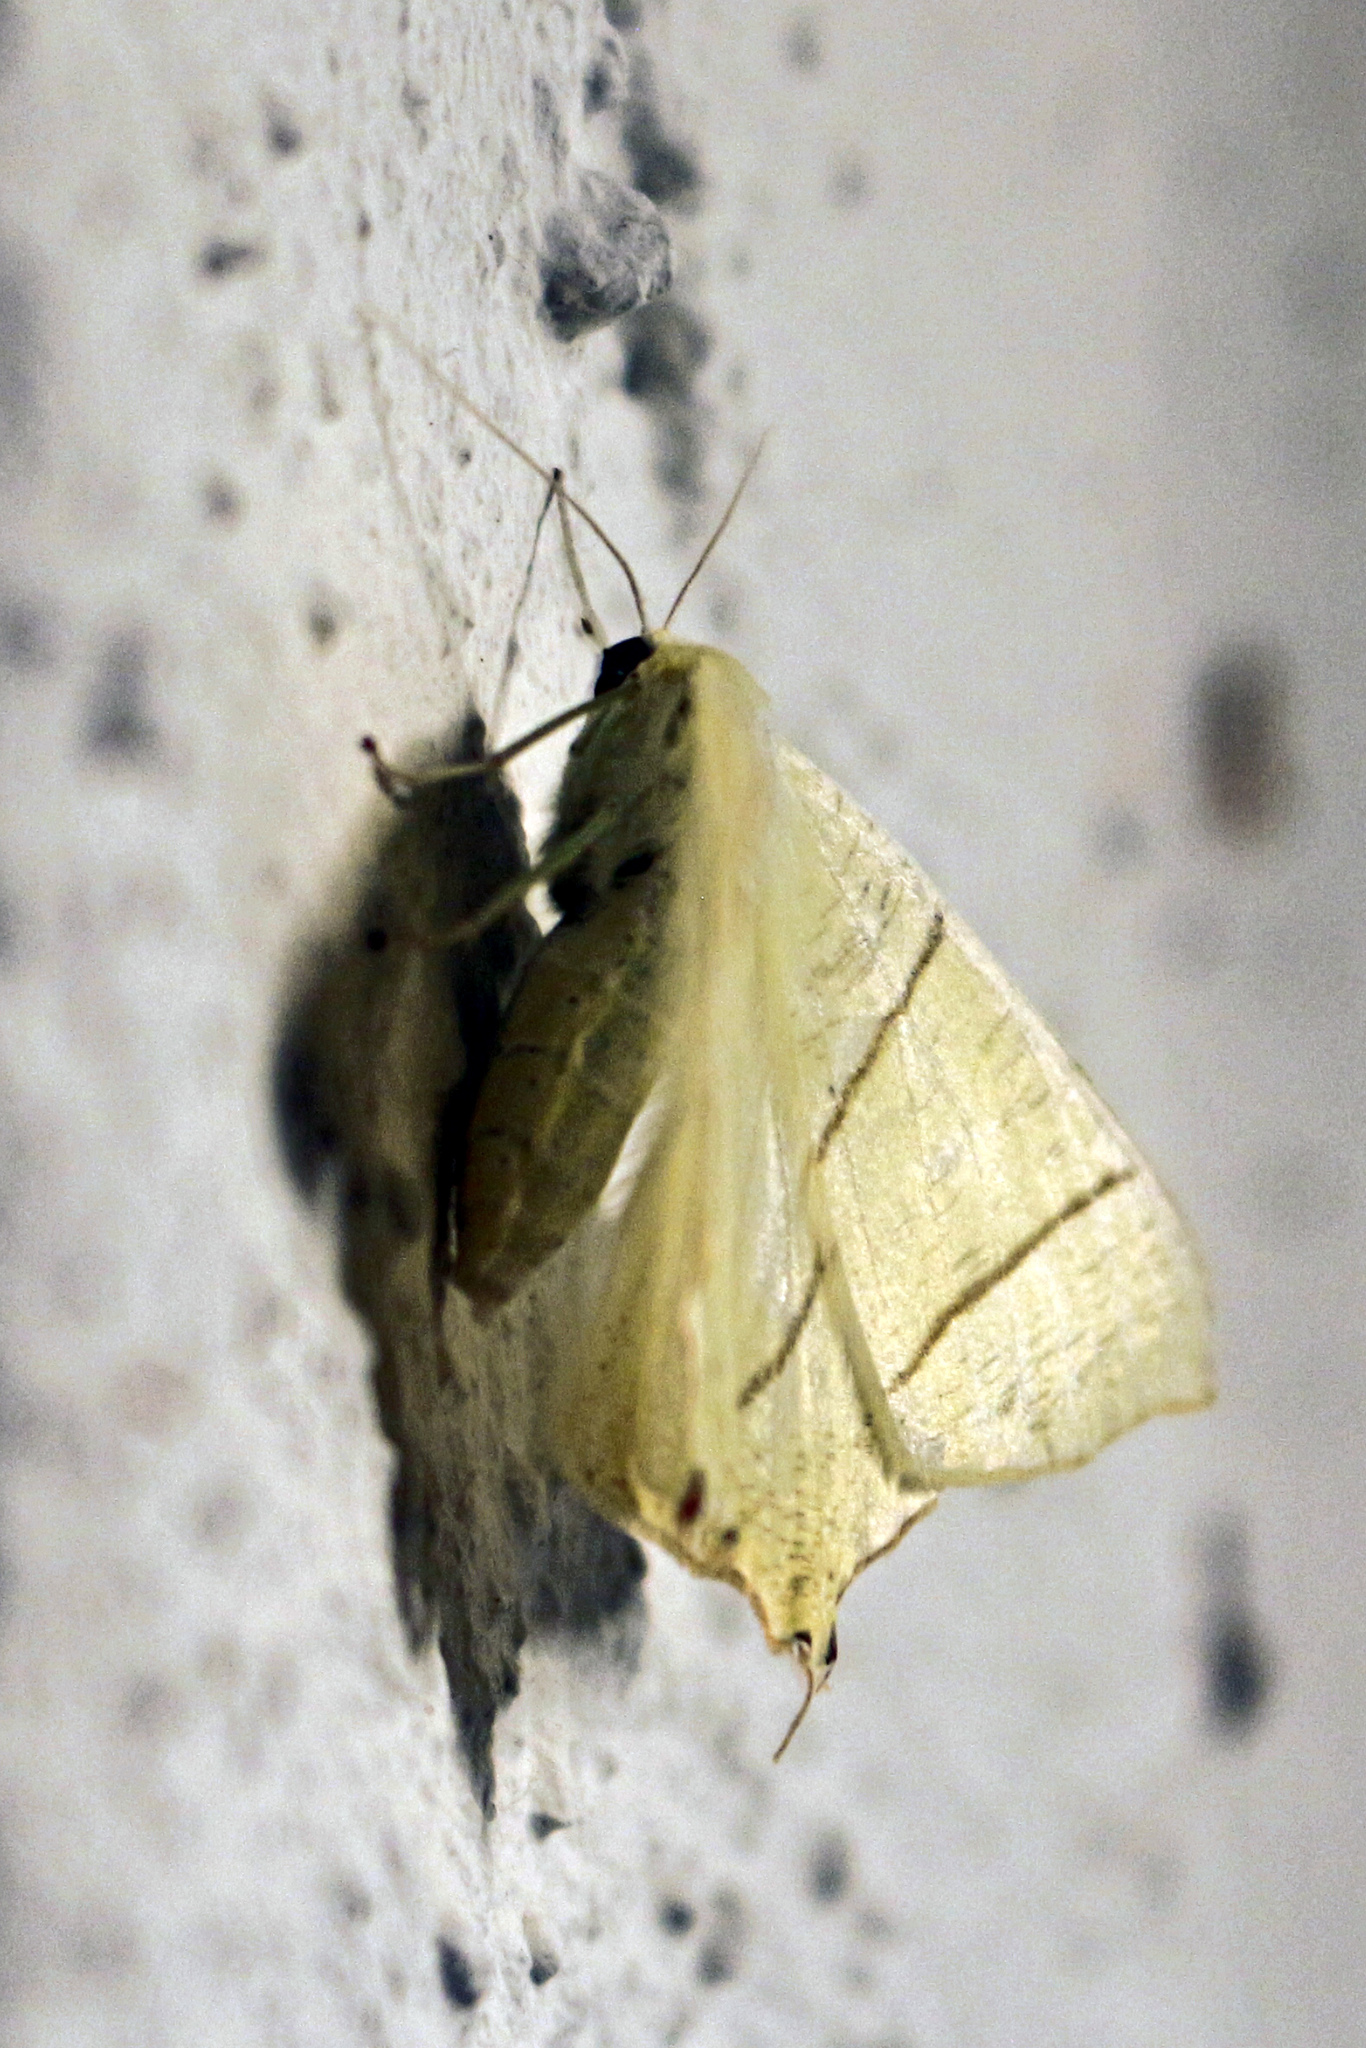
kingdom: Animalia
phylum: Arthropoda
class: Insecta
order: Lepidoptera
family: Geometridae
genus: Ourapteryx
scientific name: Ourapteryx sambucaria
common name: Swallow-tailed moth
